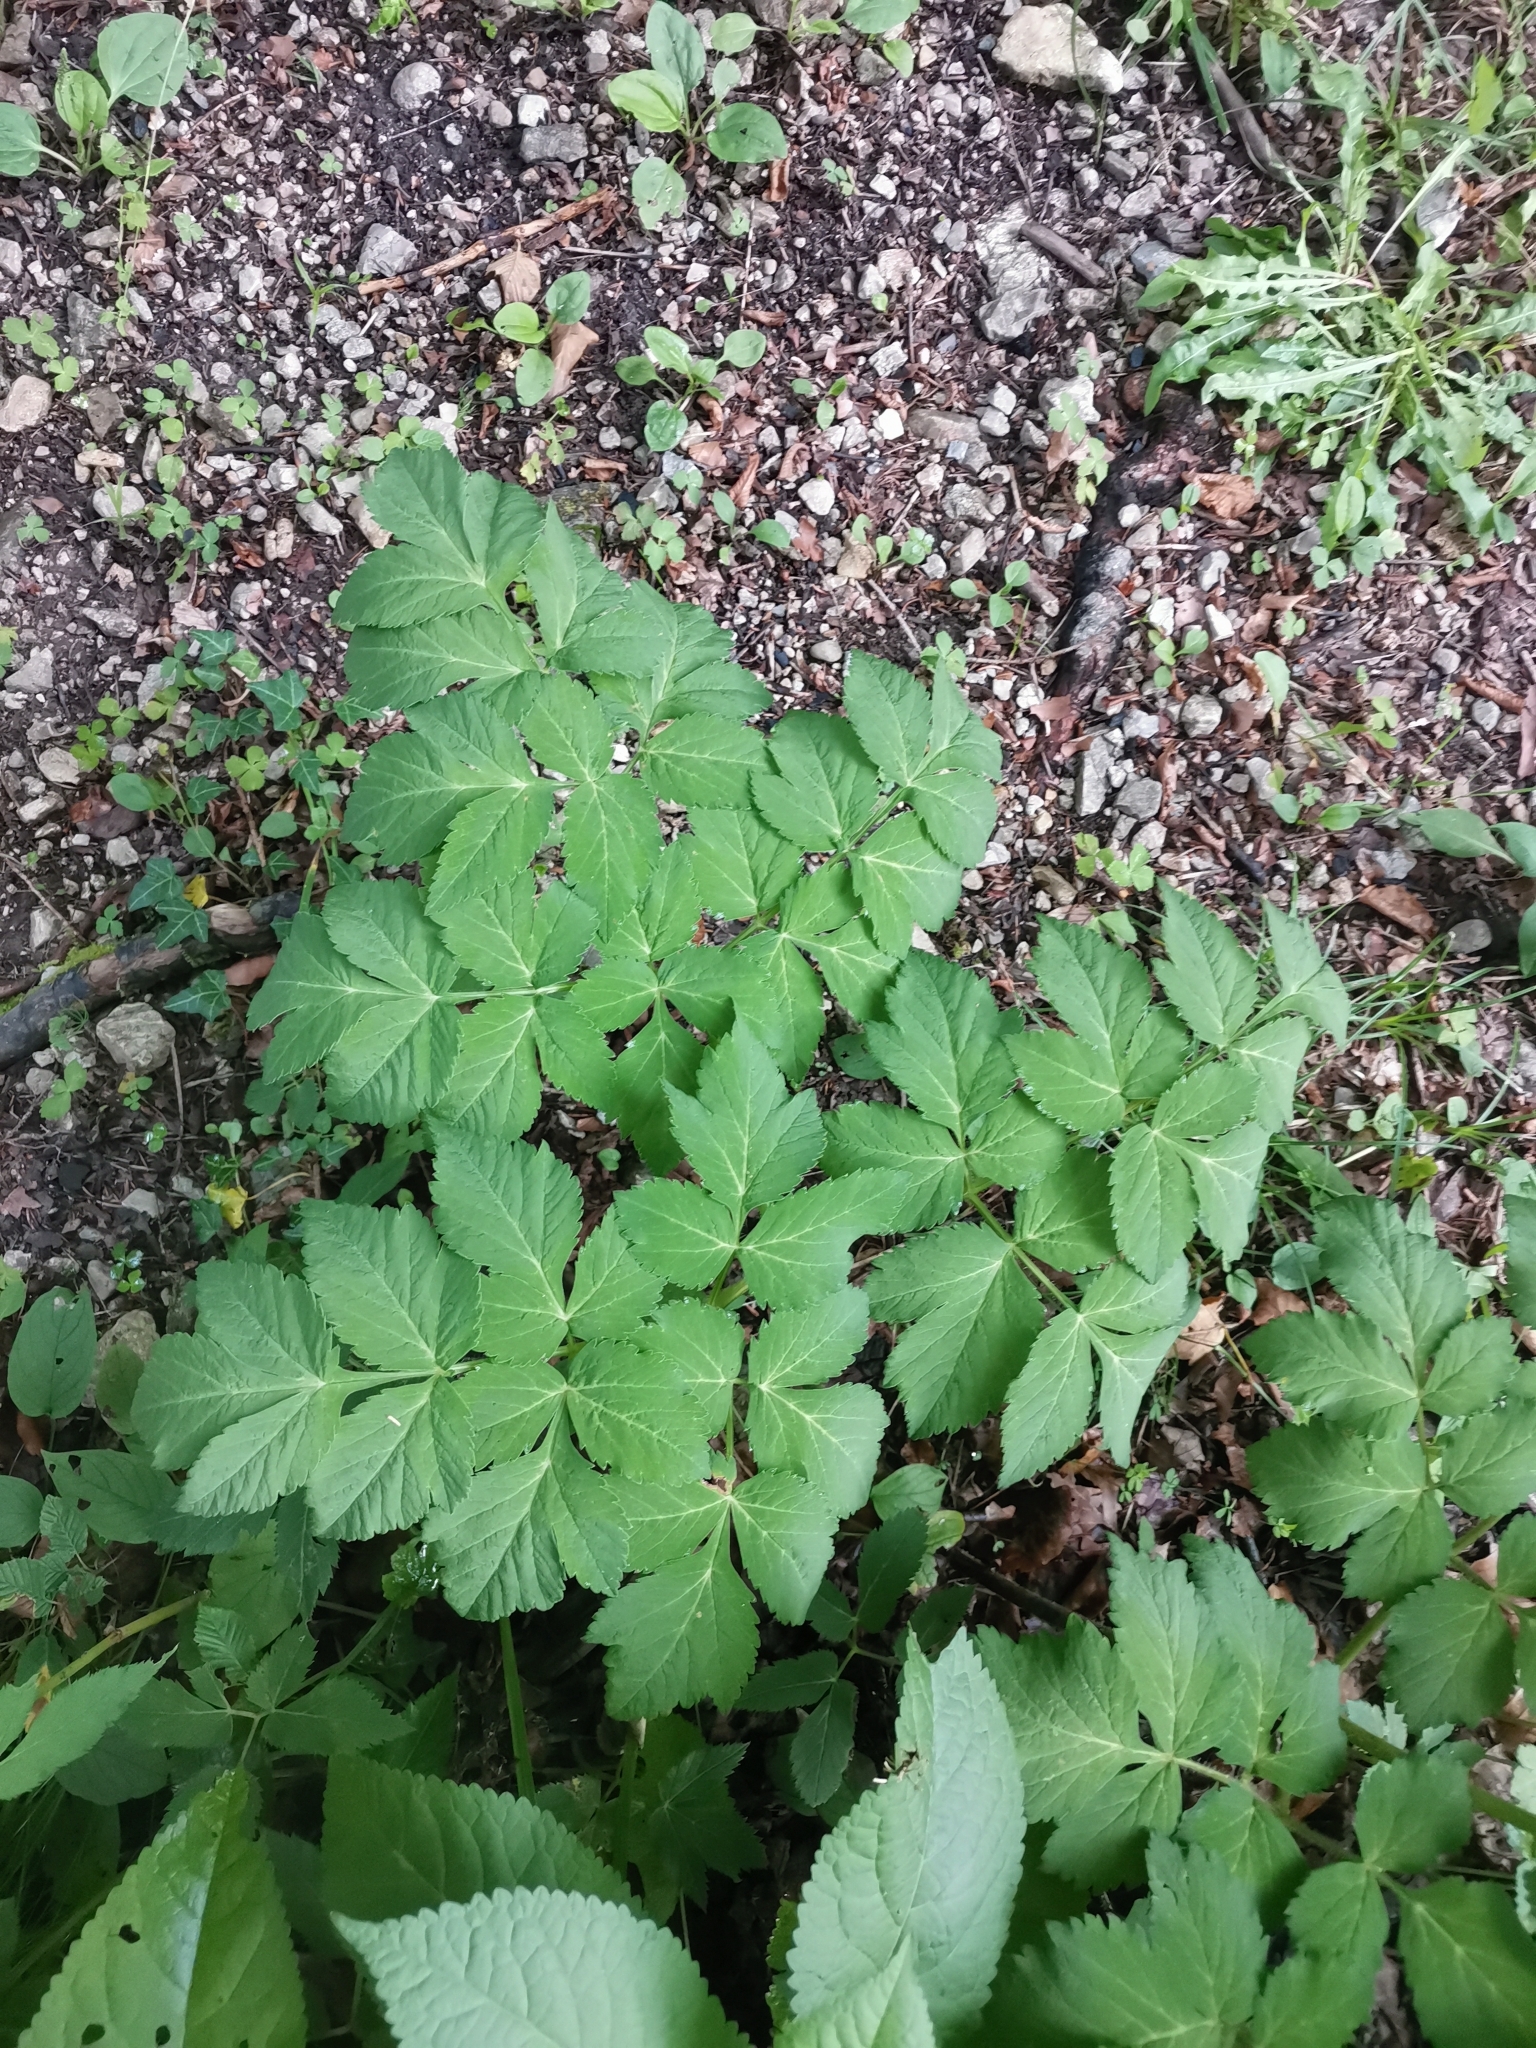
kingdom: Plantae
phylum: Tracheophyta
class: Magnoliopsida
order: Apiales
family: Apiaceae
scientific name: Apiaceae
